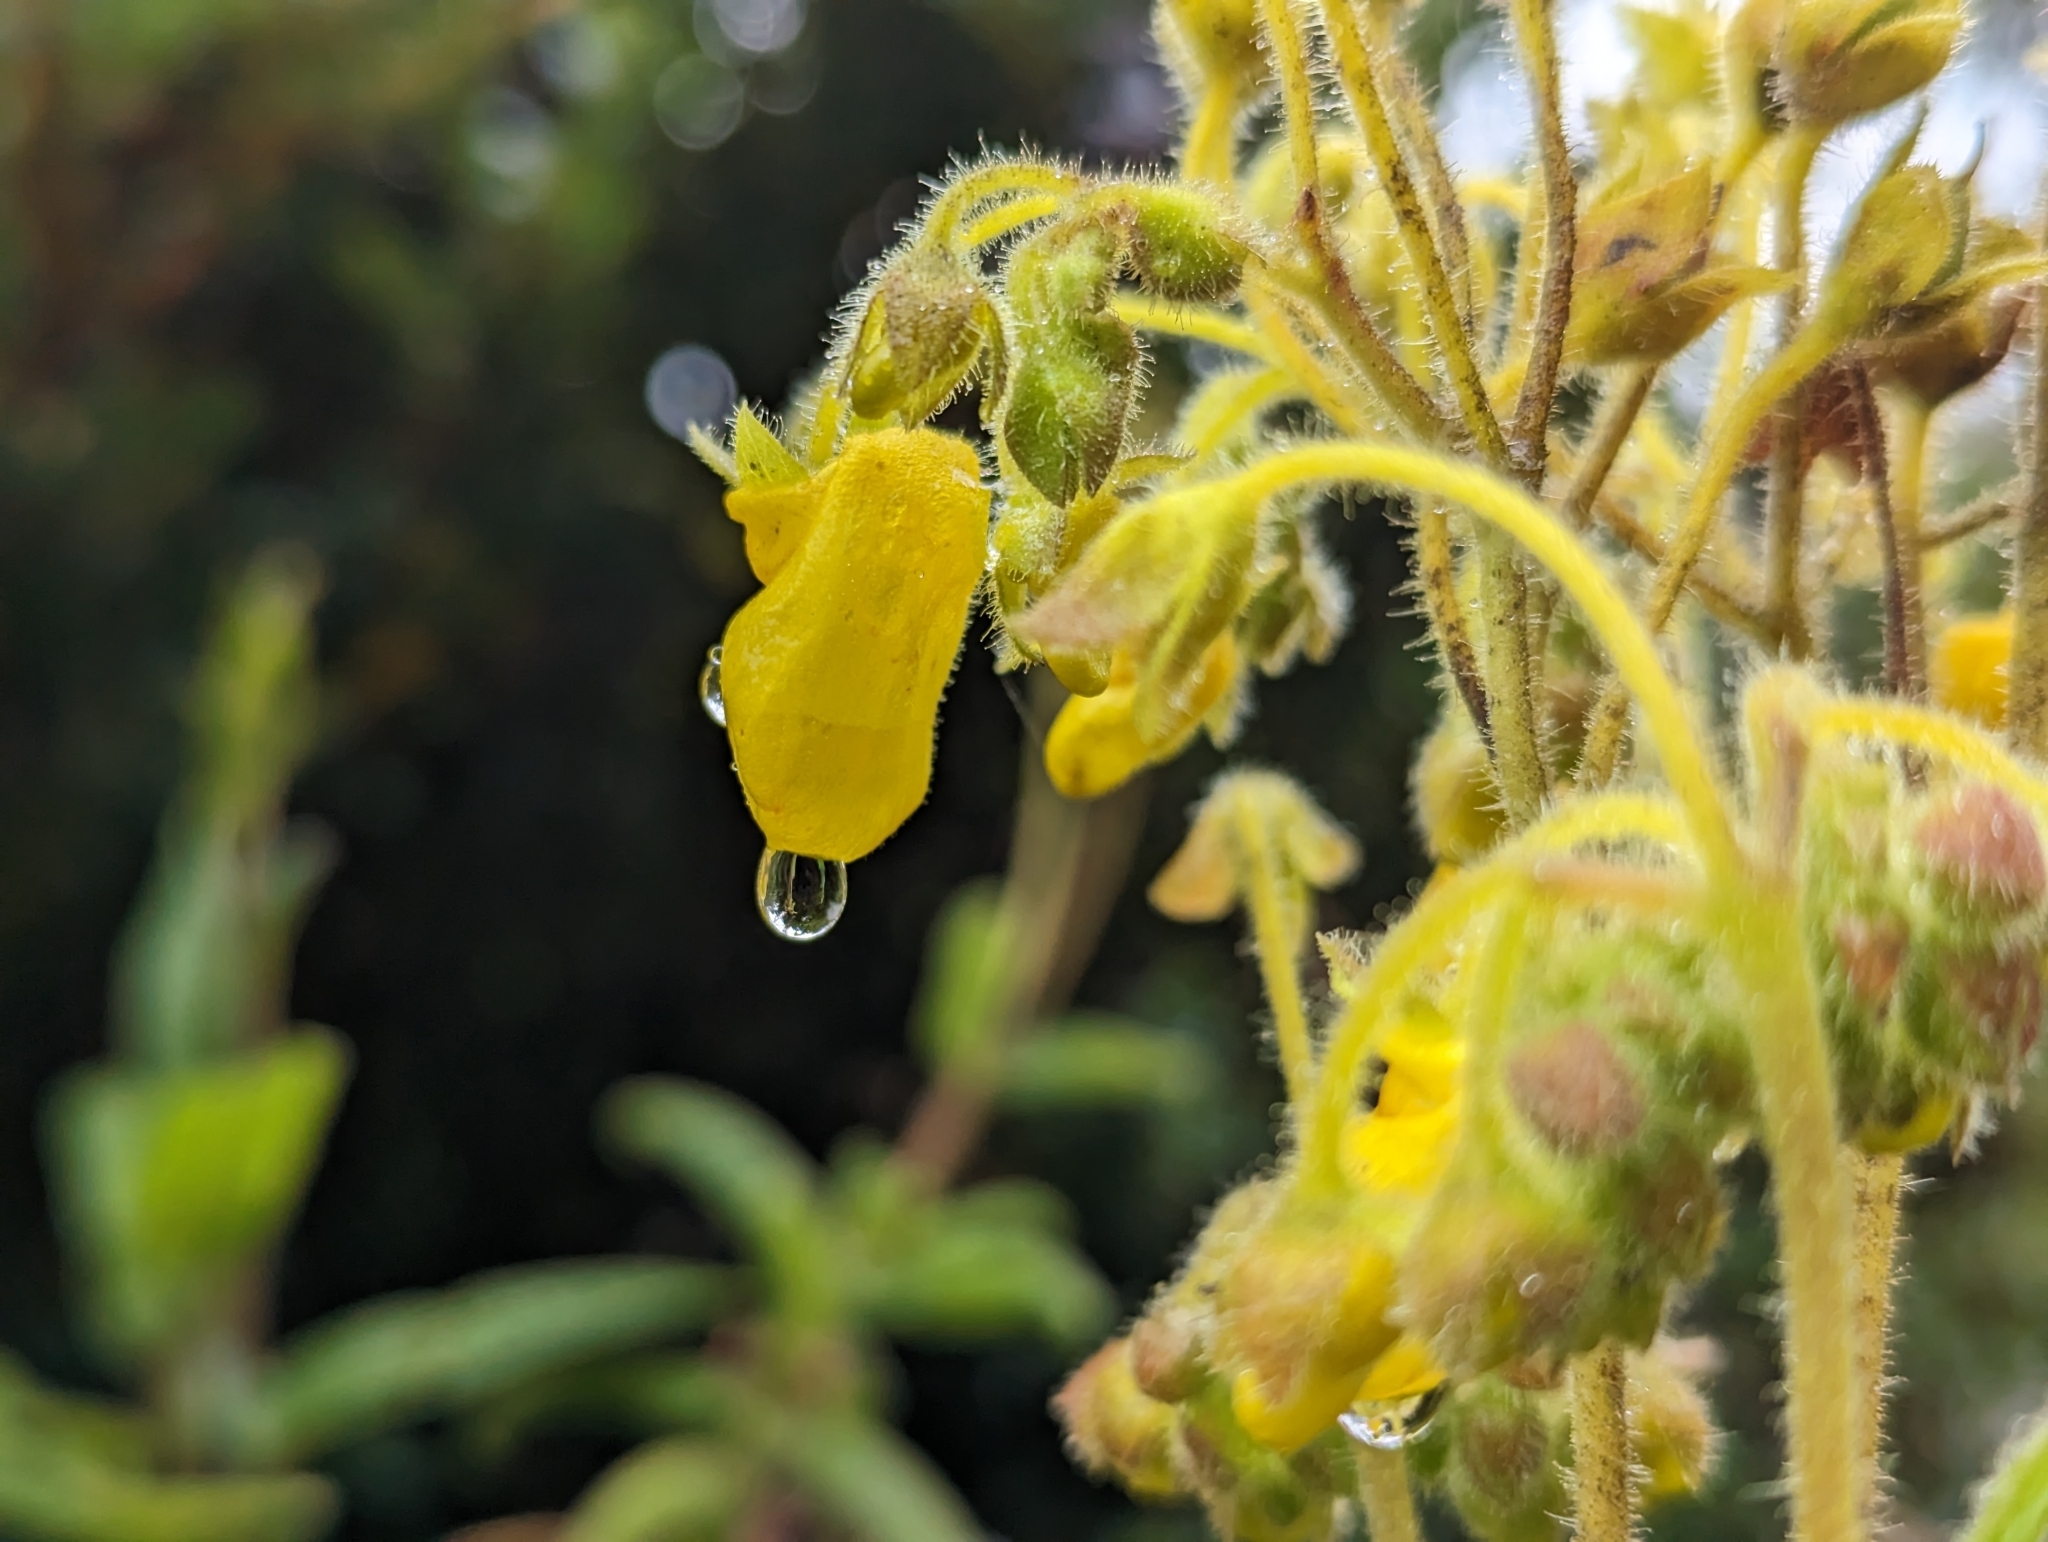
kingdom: Plantae
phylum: Tracheophyta
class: Magnoliopsida
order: Lamiales
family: Calceolariaceae
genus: Calceolaria
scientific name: Calceolaria crenata
